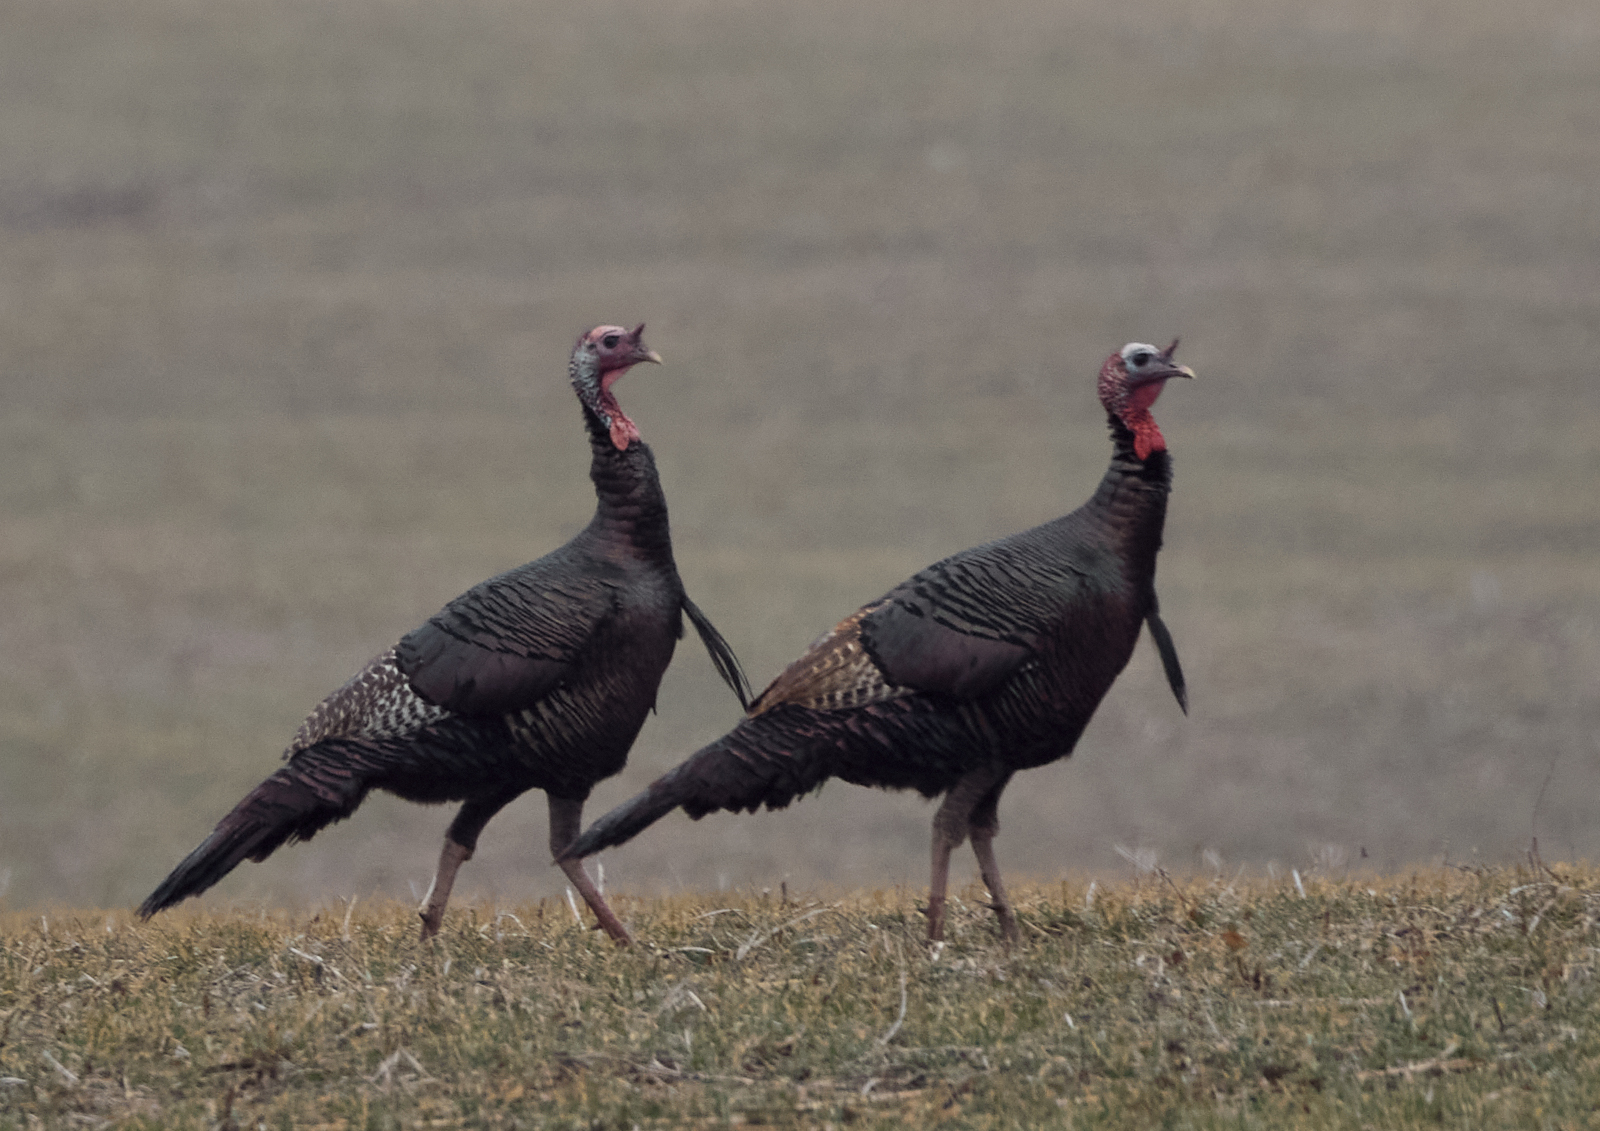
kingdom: Animalia
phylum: Chordata
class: Aves
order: Galliformes
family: Phasianidae
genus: Meleagris
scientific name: Meleagris gallopavo
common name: Wild turkey
